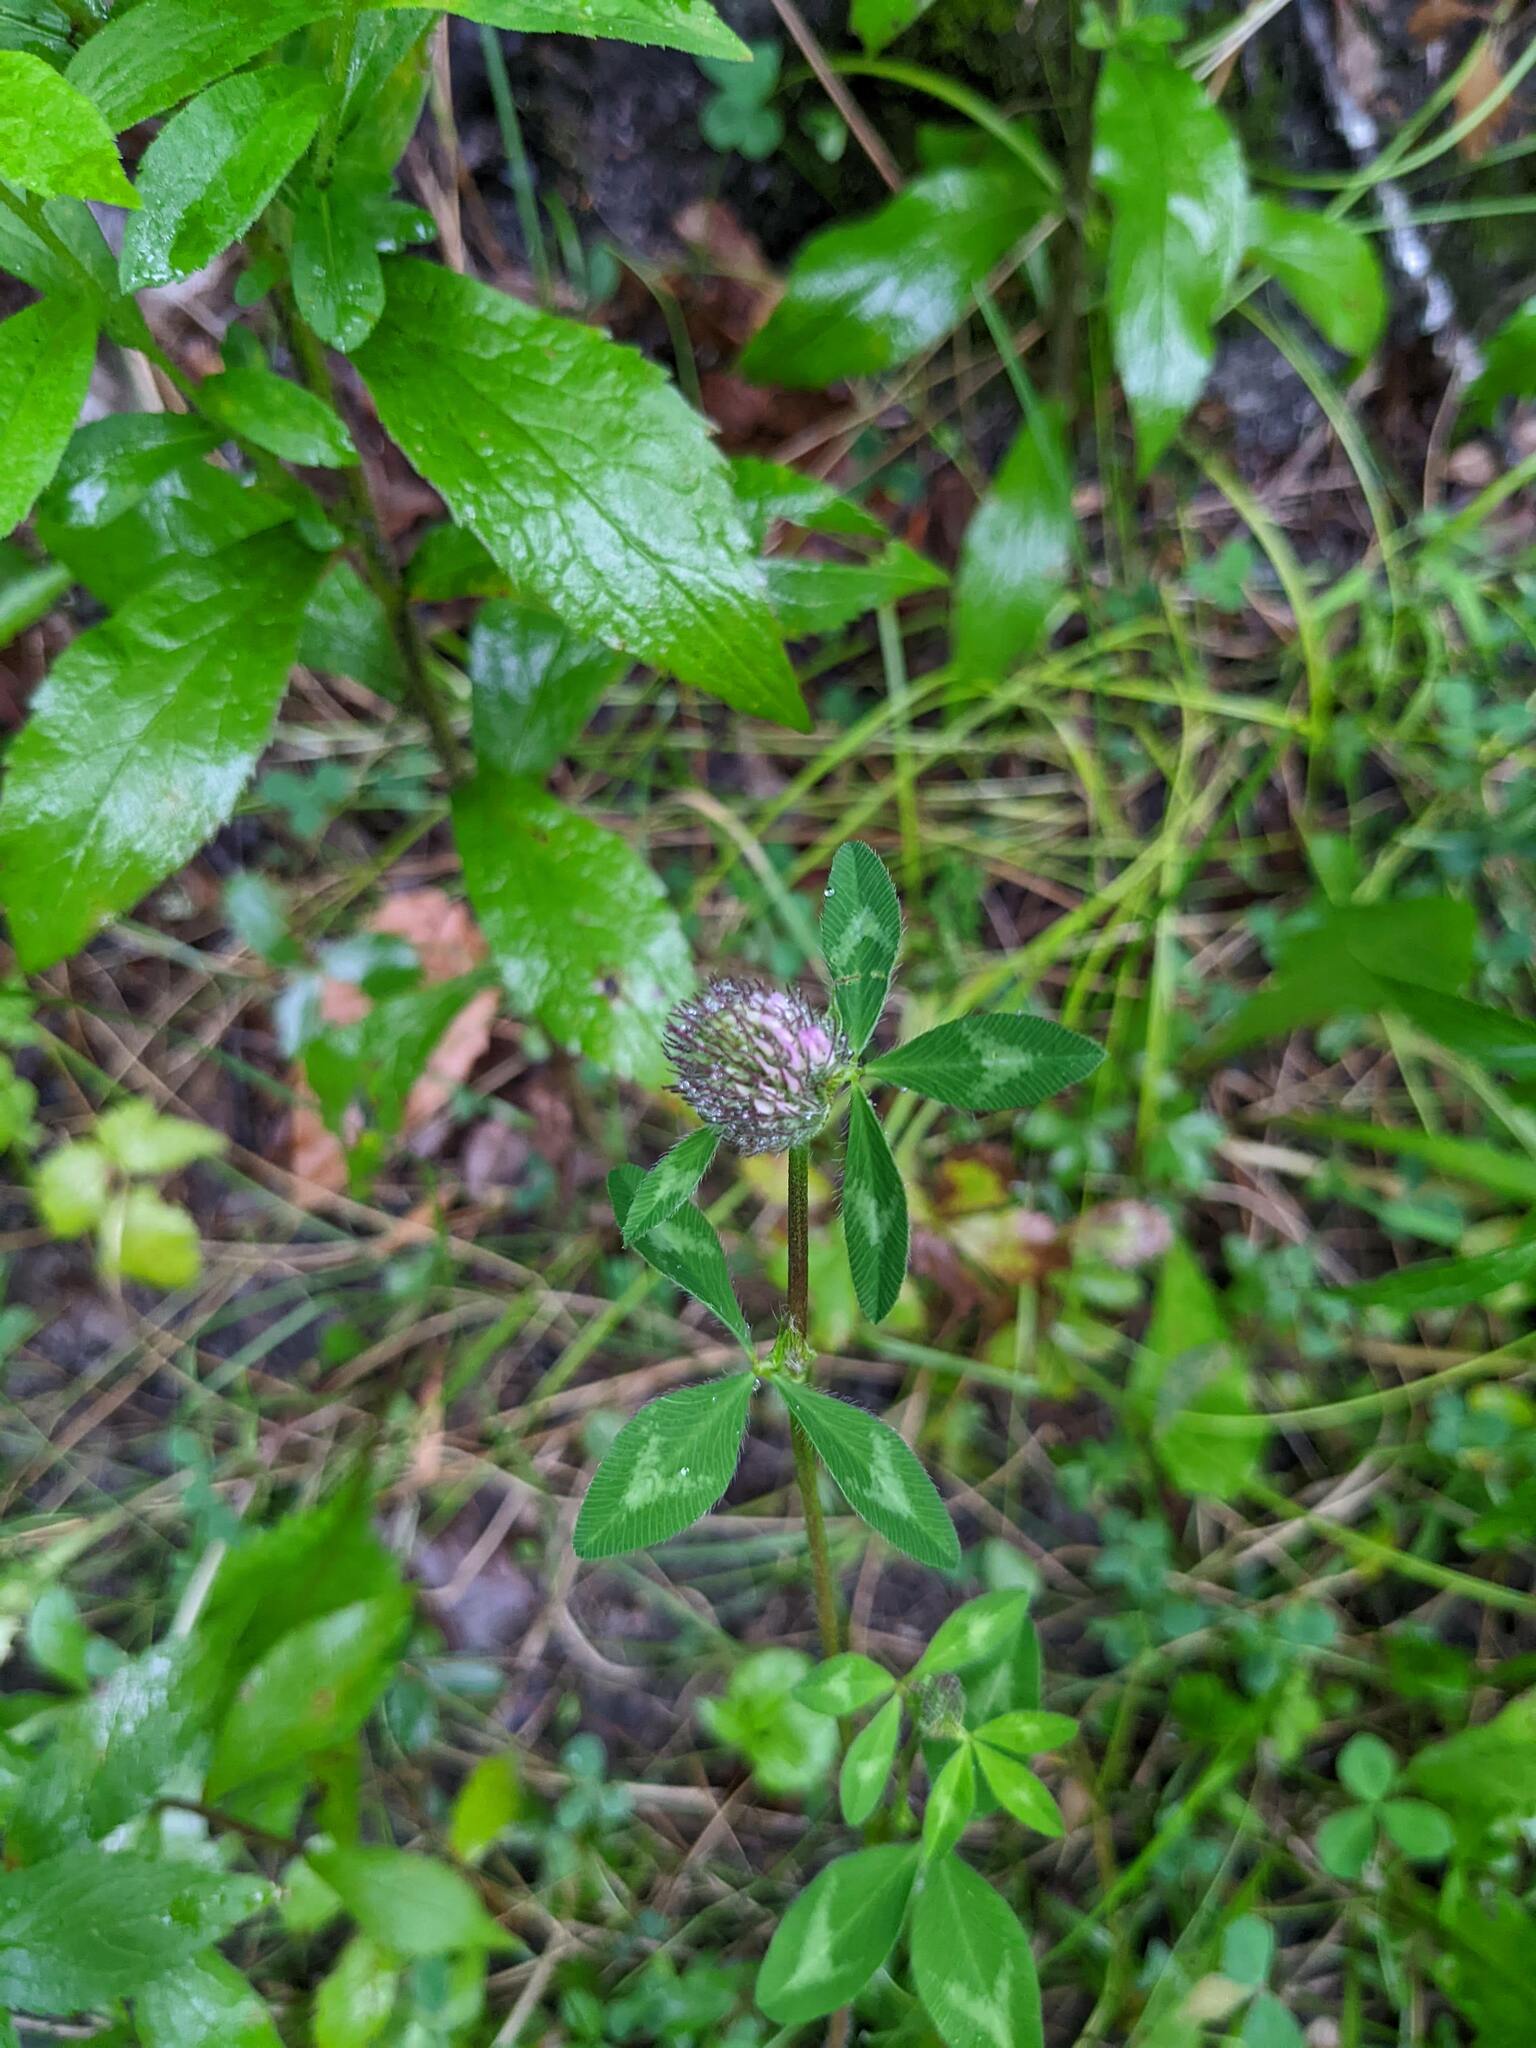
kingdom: Plantae
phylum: Tracheophyta
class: Magnoliopsida
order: Fabales
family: Fabaceae
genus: Trifolium
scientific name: Trifolium pratense
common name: Red clover
